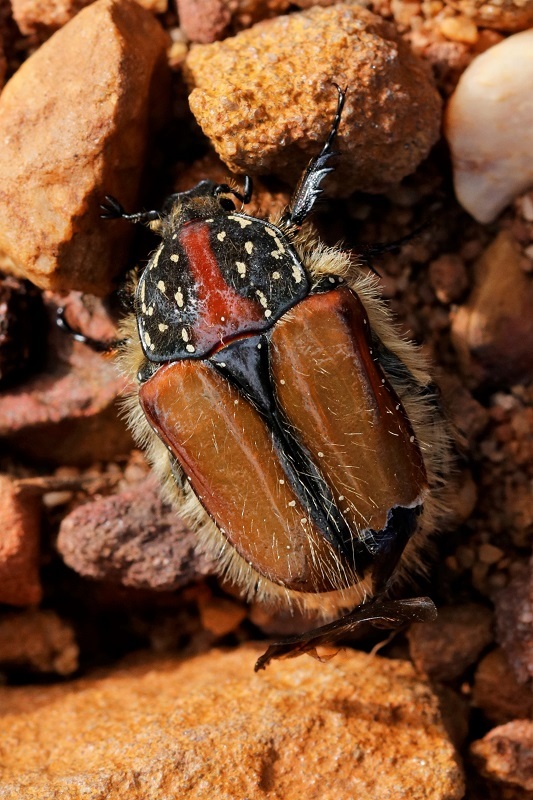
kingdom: Animalia
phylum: Arthropoda
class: Insecta
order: Coleoptera
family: Scarabaeidae
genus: Trichostetha
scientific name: Trichostetha capensis
